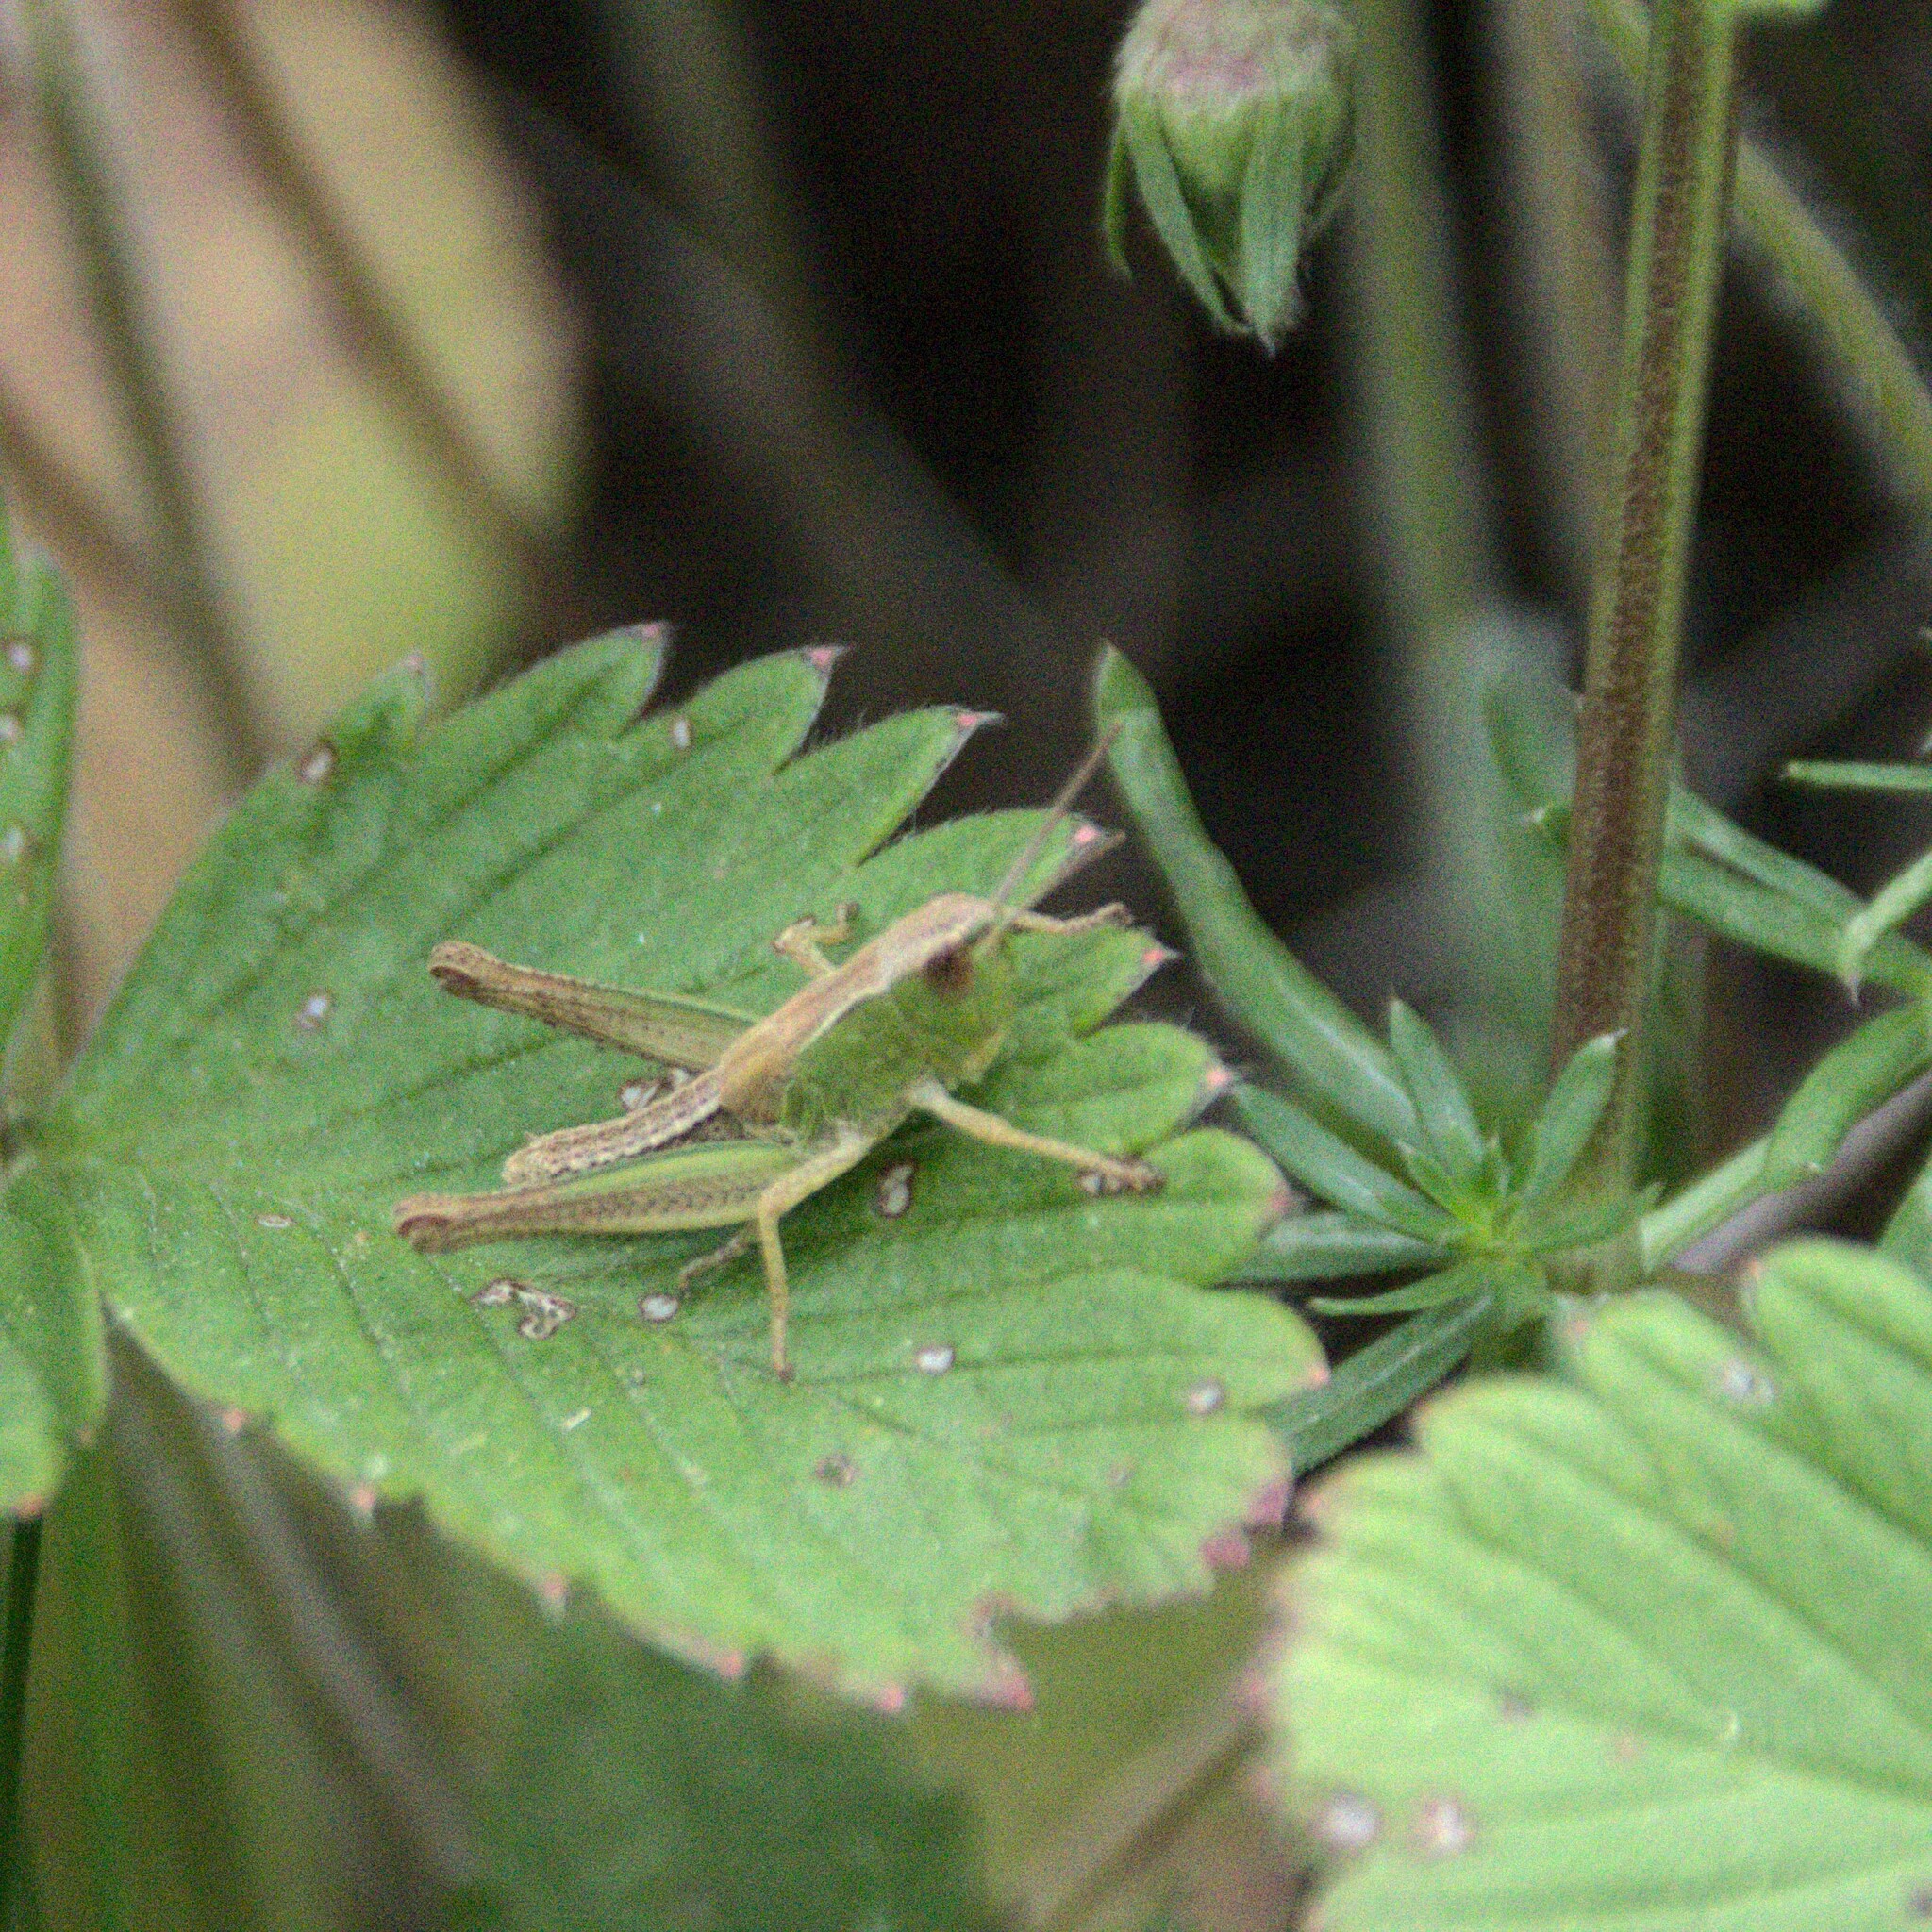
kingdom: Animalia
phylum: Arthropoda
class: Insecta
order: Orthoptera
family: Acrididae
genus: Pseudochorthippus
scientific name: Pseudochorthippus parallelus
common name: Meadow grasshopper
